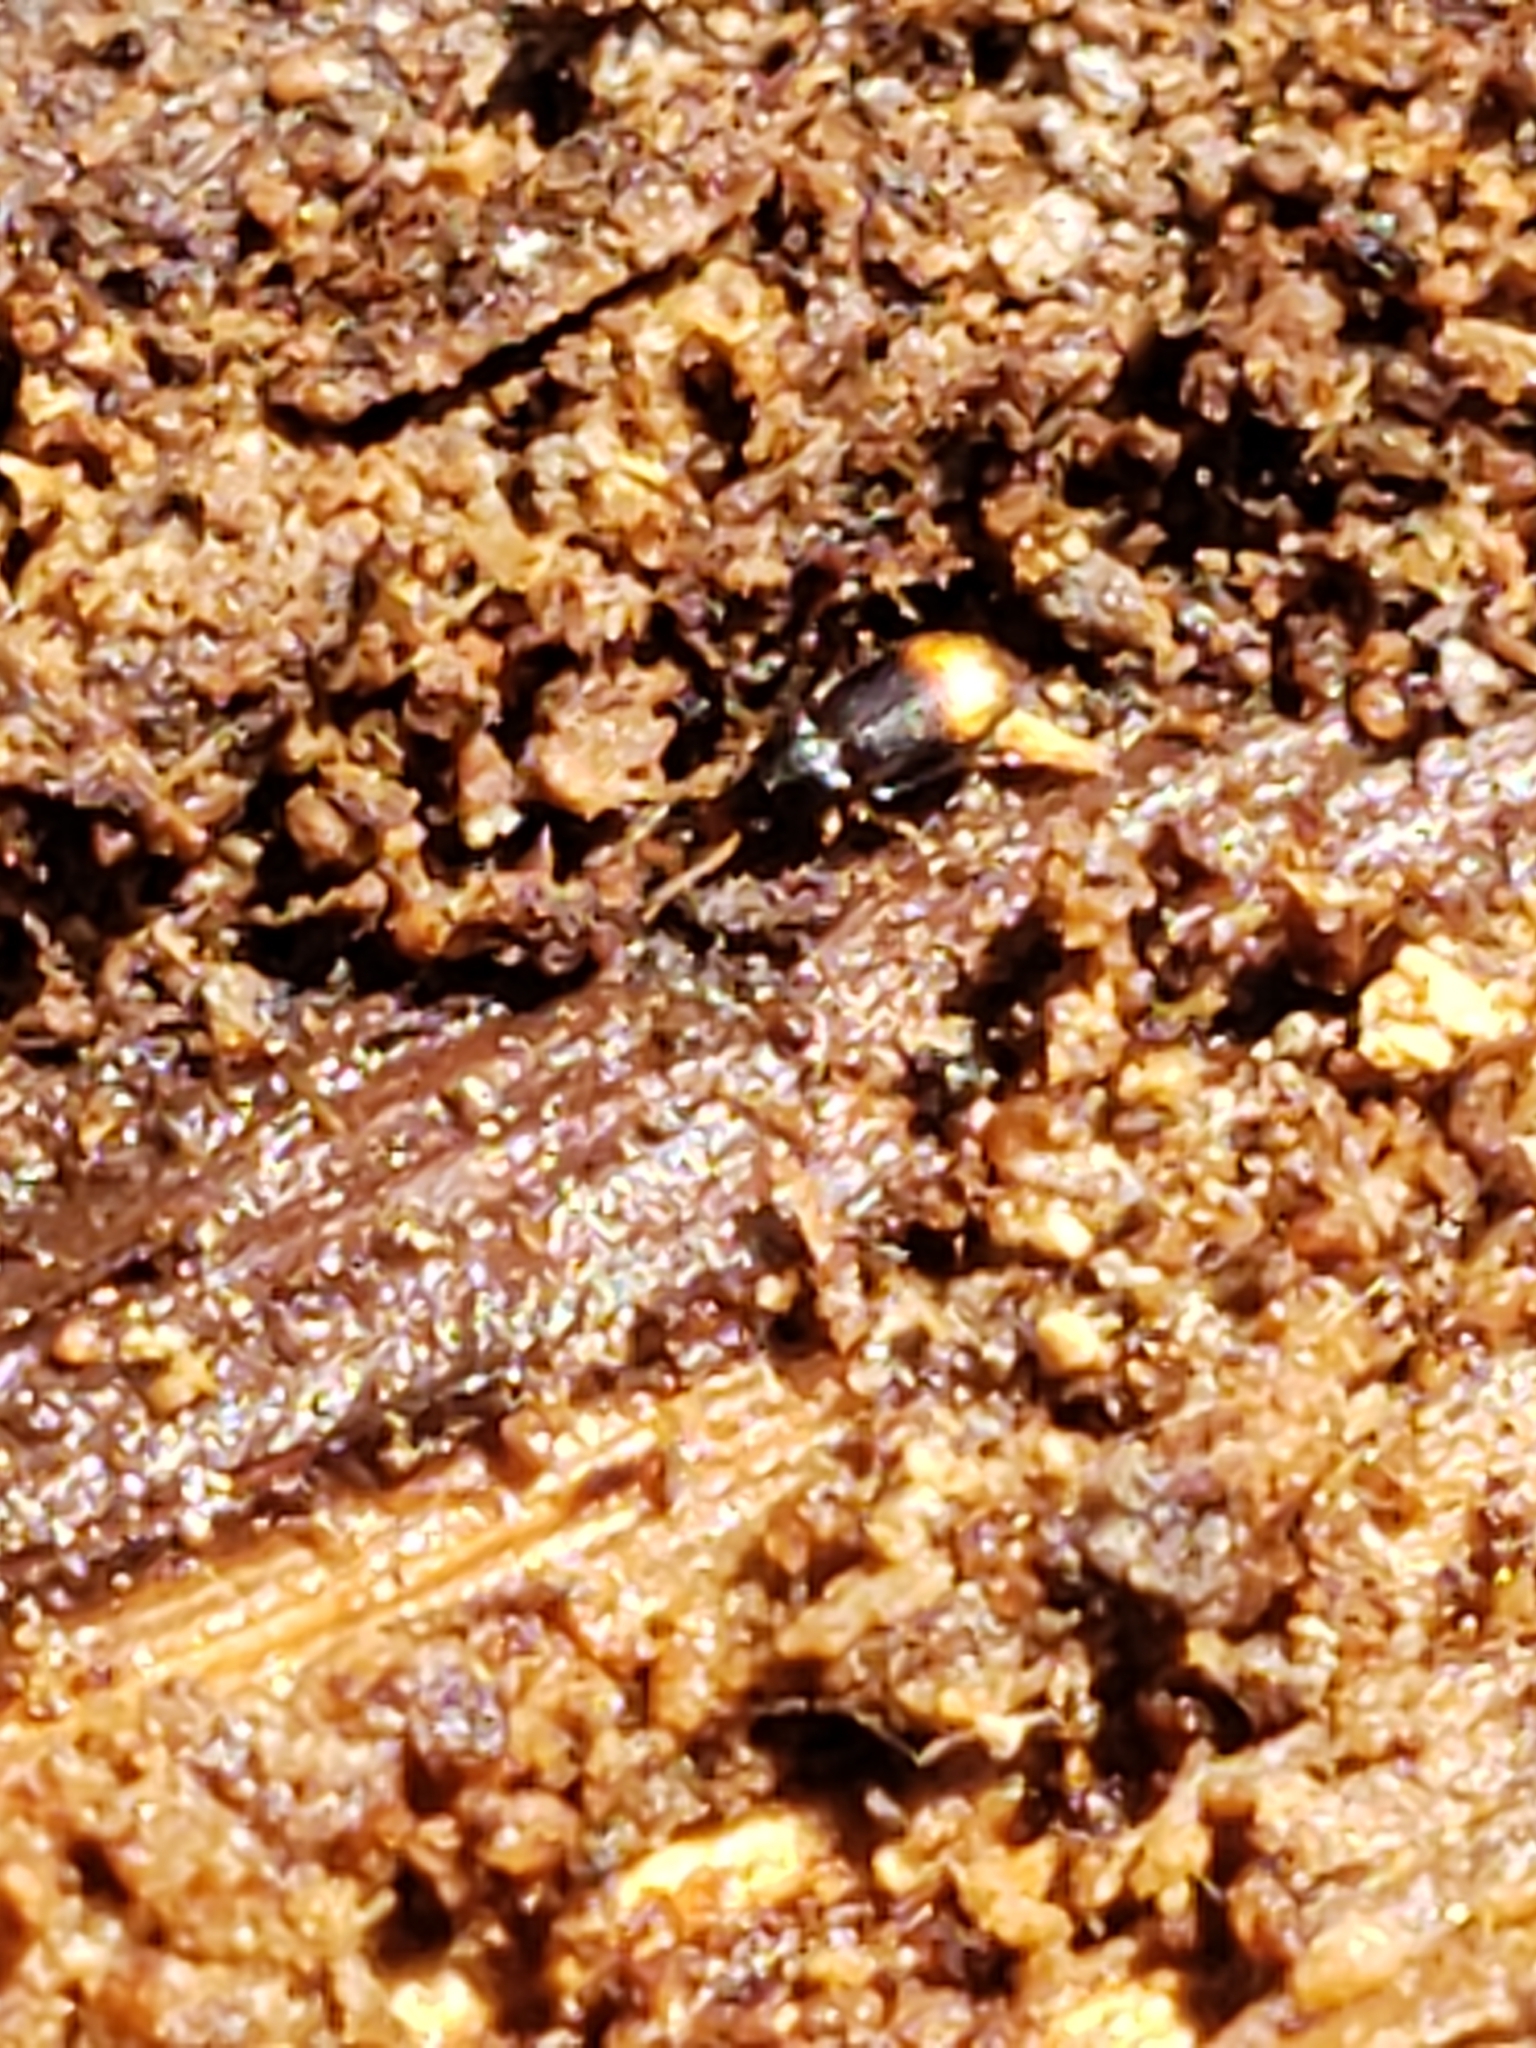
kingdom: Animalia
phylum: Arthropoda
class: Insecta
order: Coleoptera
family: Carabidae
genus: Mioptachys
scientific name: Mioptachys flavicauda
